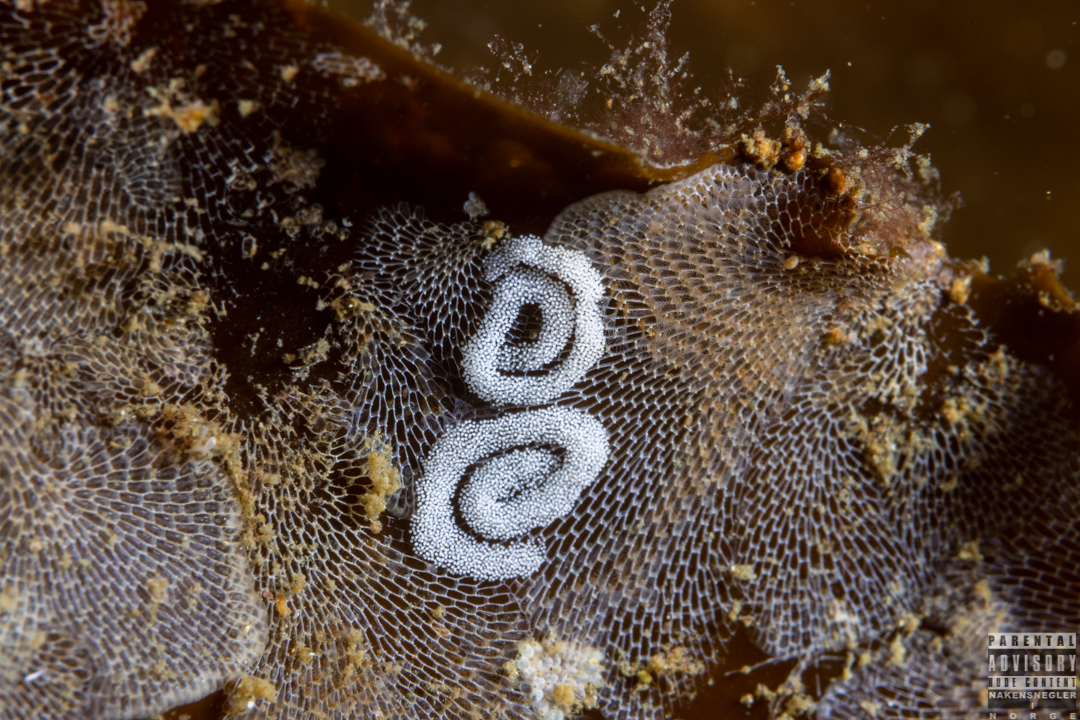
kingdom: Animalia
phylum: Mollusca
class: Gastropoda
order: Nudibranchia
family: Polyceridae
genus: Limacia
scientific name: Limacia clavigera
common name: Orange-clubbed sea slug
